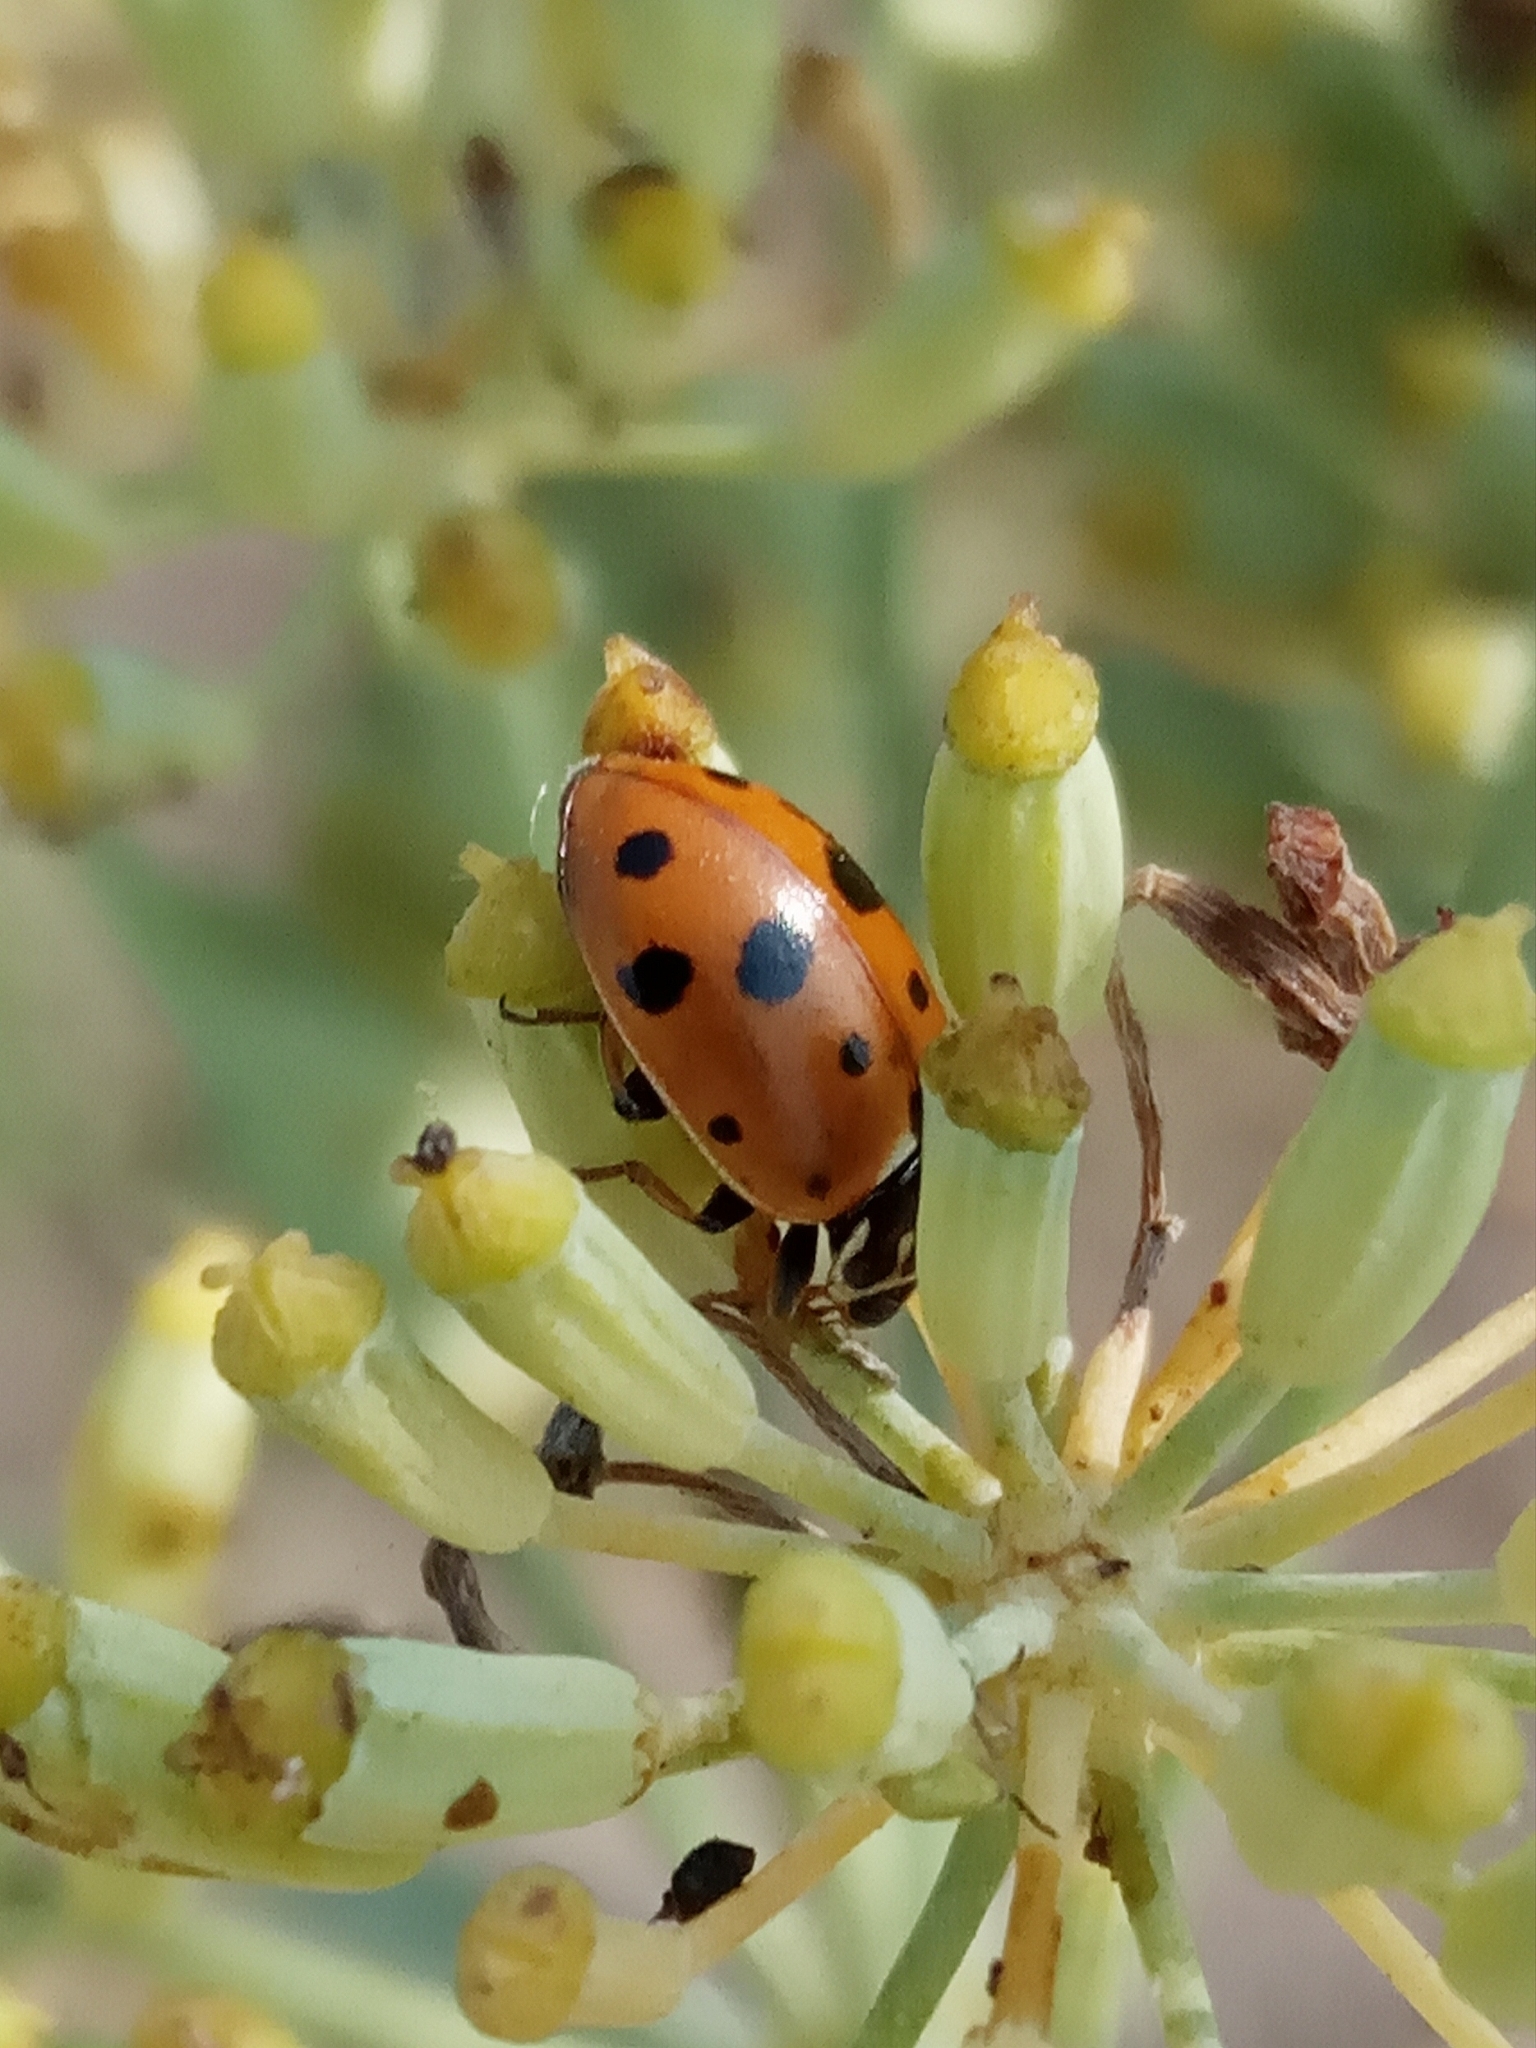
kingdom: Animalia
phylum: Arthropoda
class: Insecta
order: Coleoptera
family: Coccinellidae
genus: Hippodamia
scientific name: Hippodamia variegata
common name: Ladybird beetle
